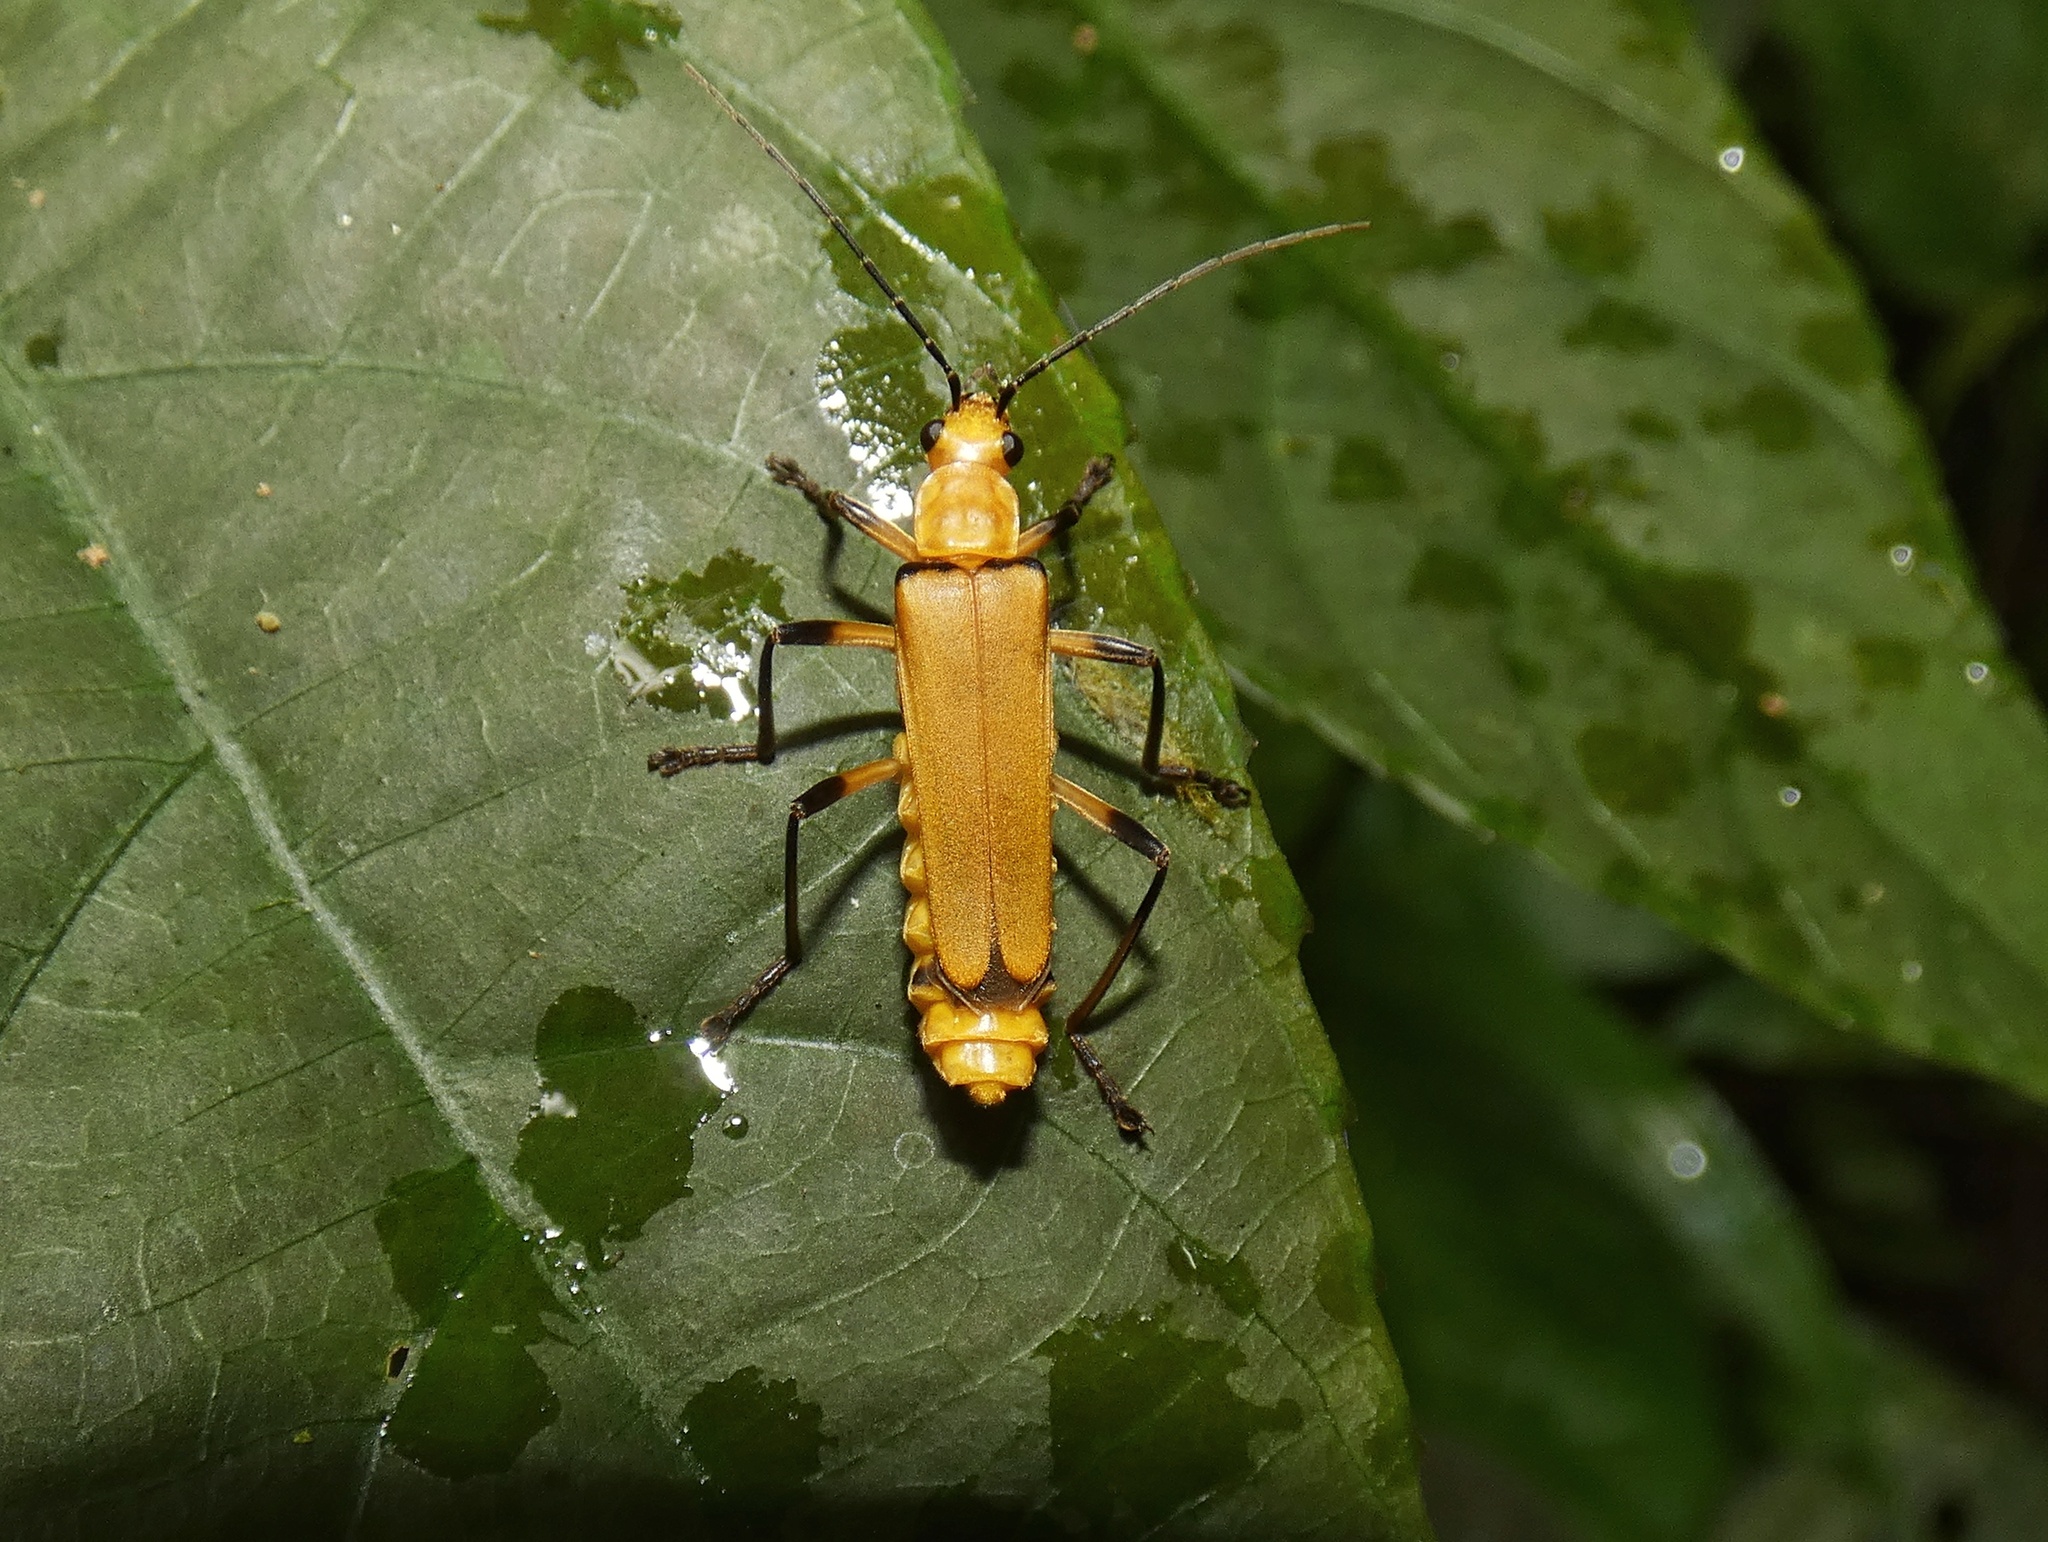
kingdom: Animalia
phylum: Arthropoda
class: Insecta
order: Coleoptera
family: Cantharidae
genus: Chauliognathus
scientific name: Chauliognathus
